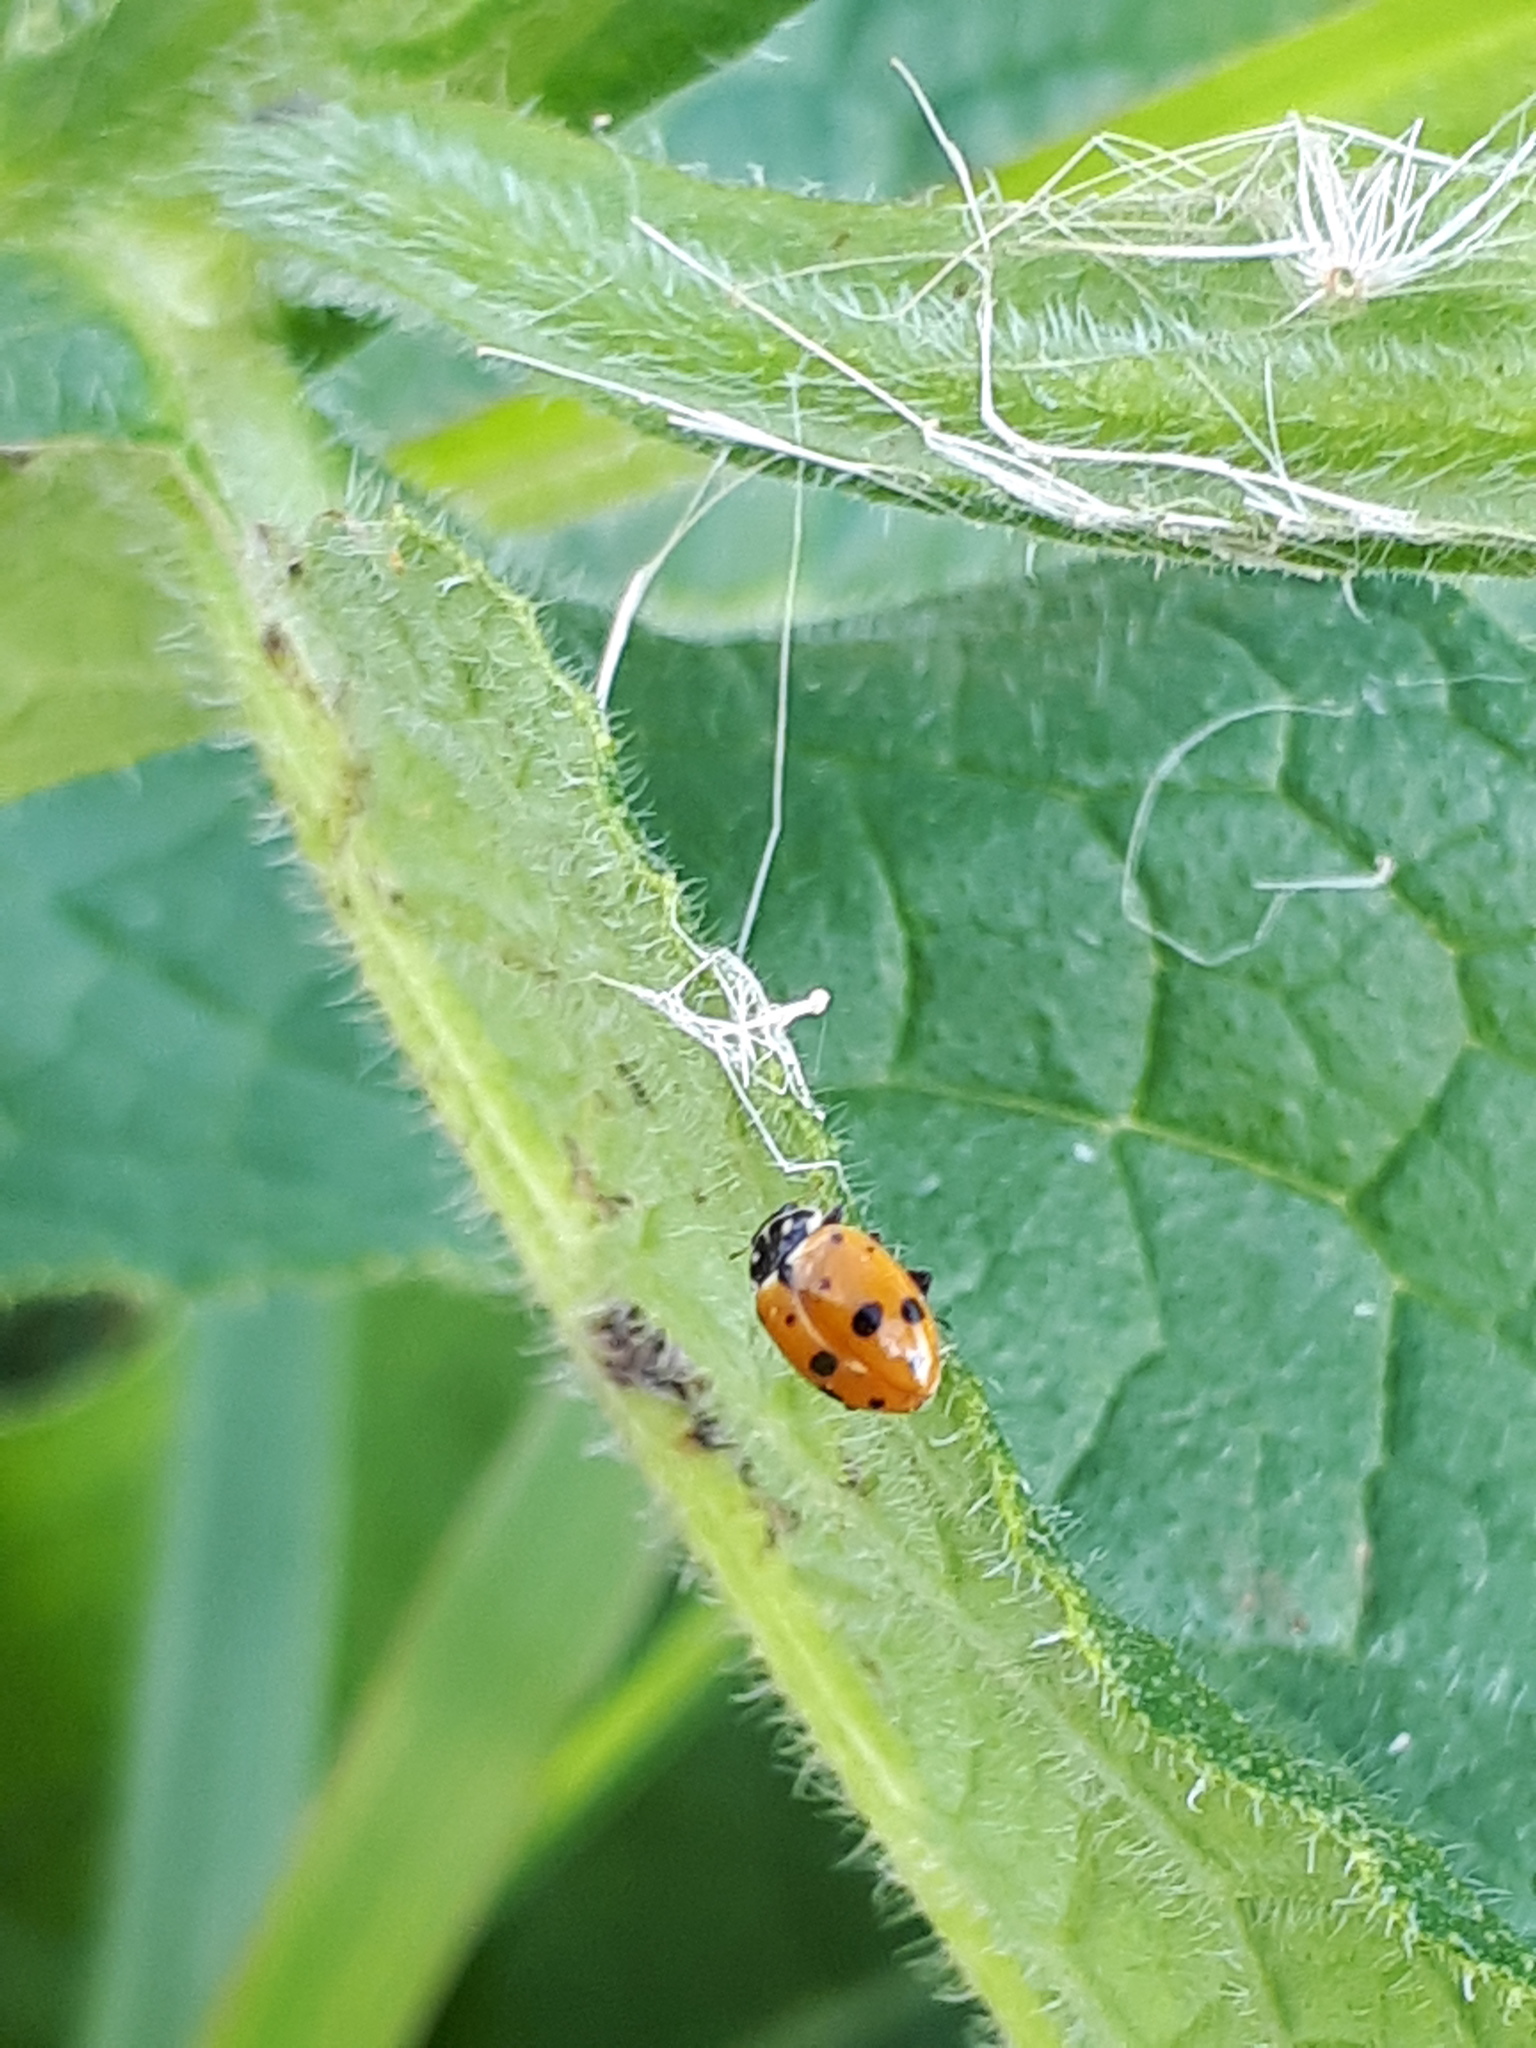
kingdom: Animalia
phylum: Arthropoda
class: Insecta
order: Coleoptera
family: Coccinellidae
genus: Hippodamia
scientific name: Hippodamia variegata
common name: Ladybird beetle
